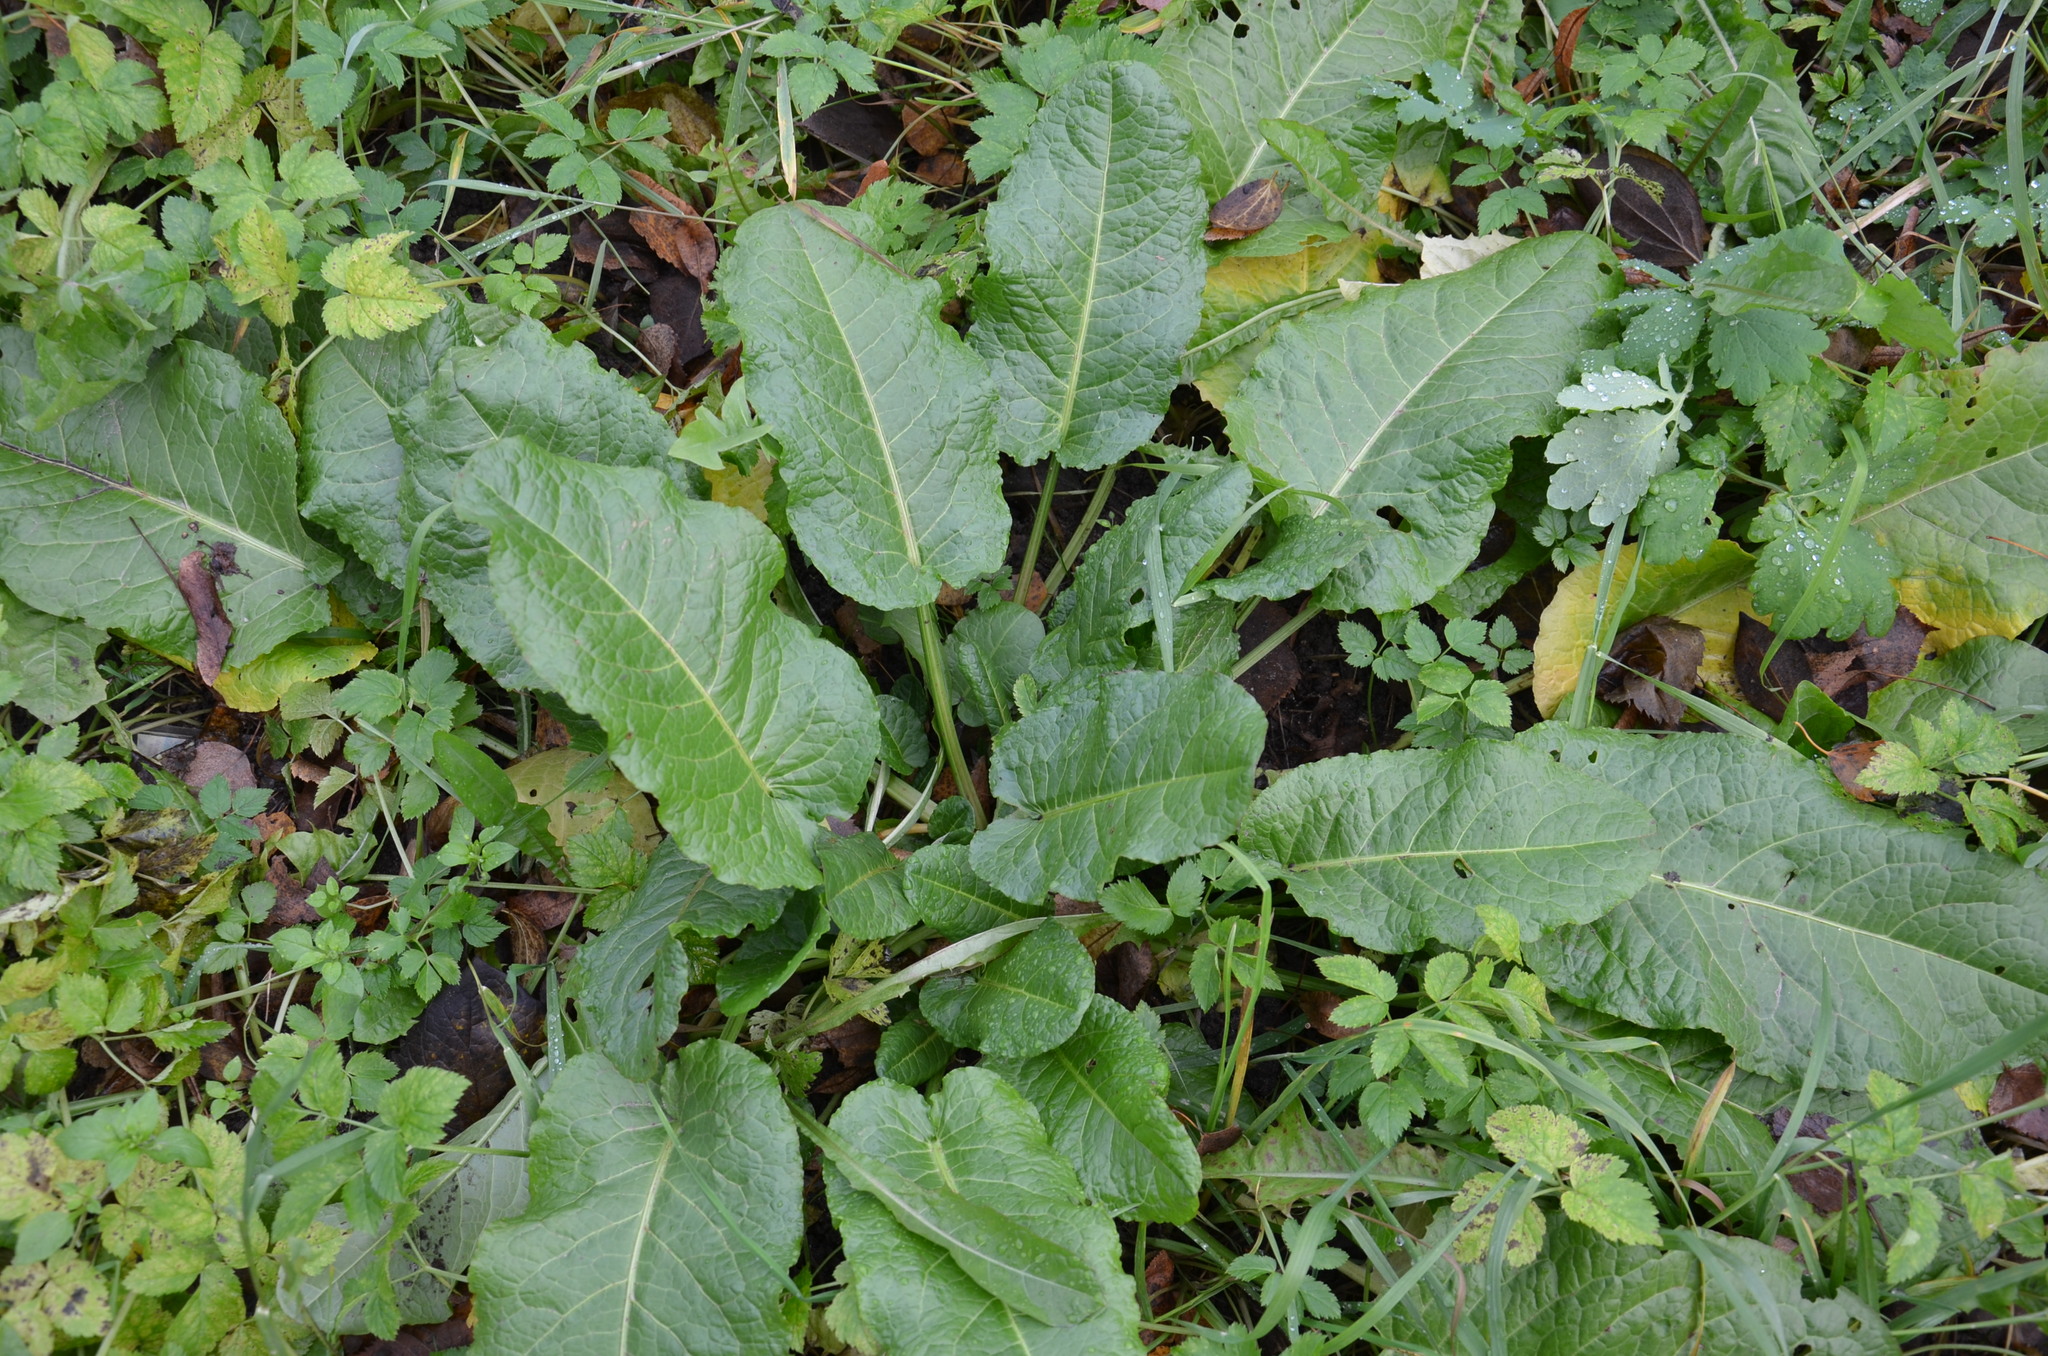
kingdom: Plantae
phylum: Tracheophyta
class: Magnoliopsida
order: Caryophyllales
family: Polygonaceae
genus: Rumex
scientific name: Rumex obtusifolius
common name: Bitter dock
